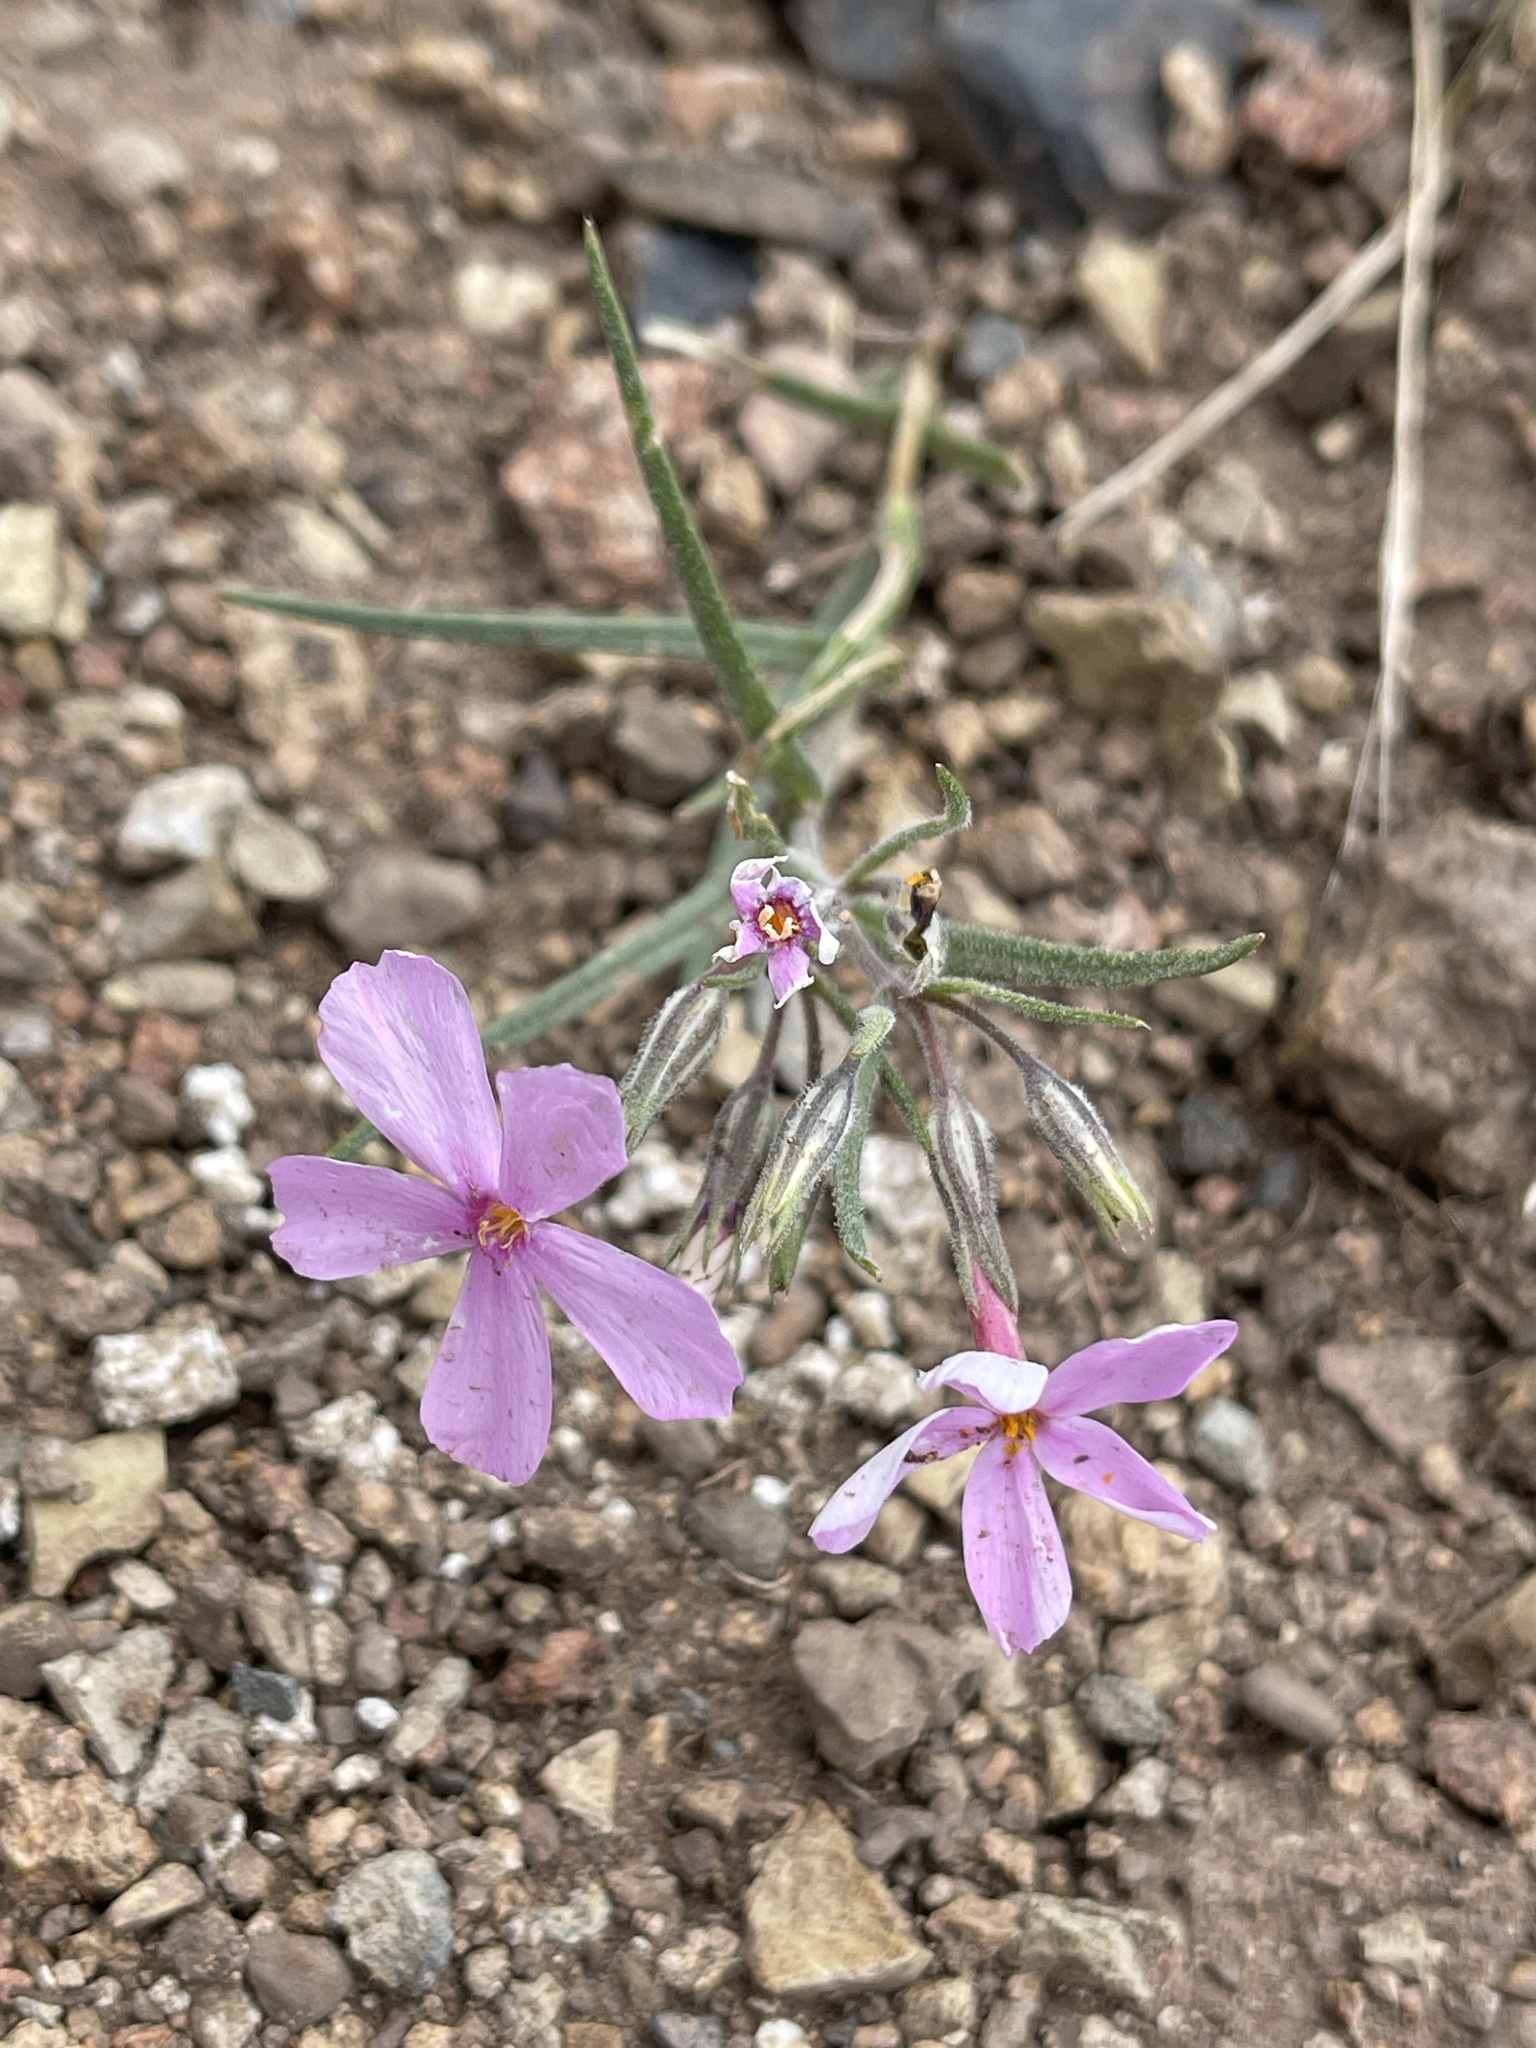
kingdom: Plantae
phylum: Tracheophyta
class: Magnoliopsida
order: Ericales
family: Polemoniaceae
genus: Phlox
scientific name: Phlox longifolia
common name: Longleaf phlox
